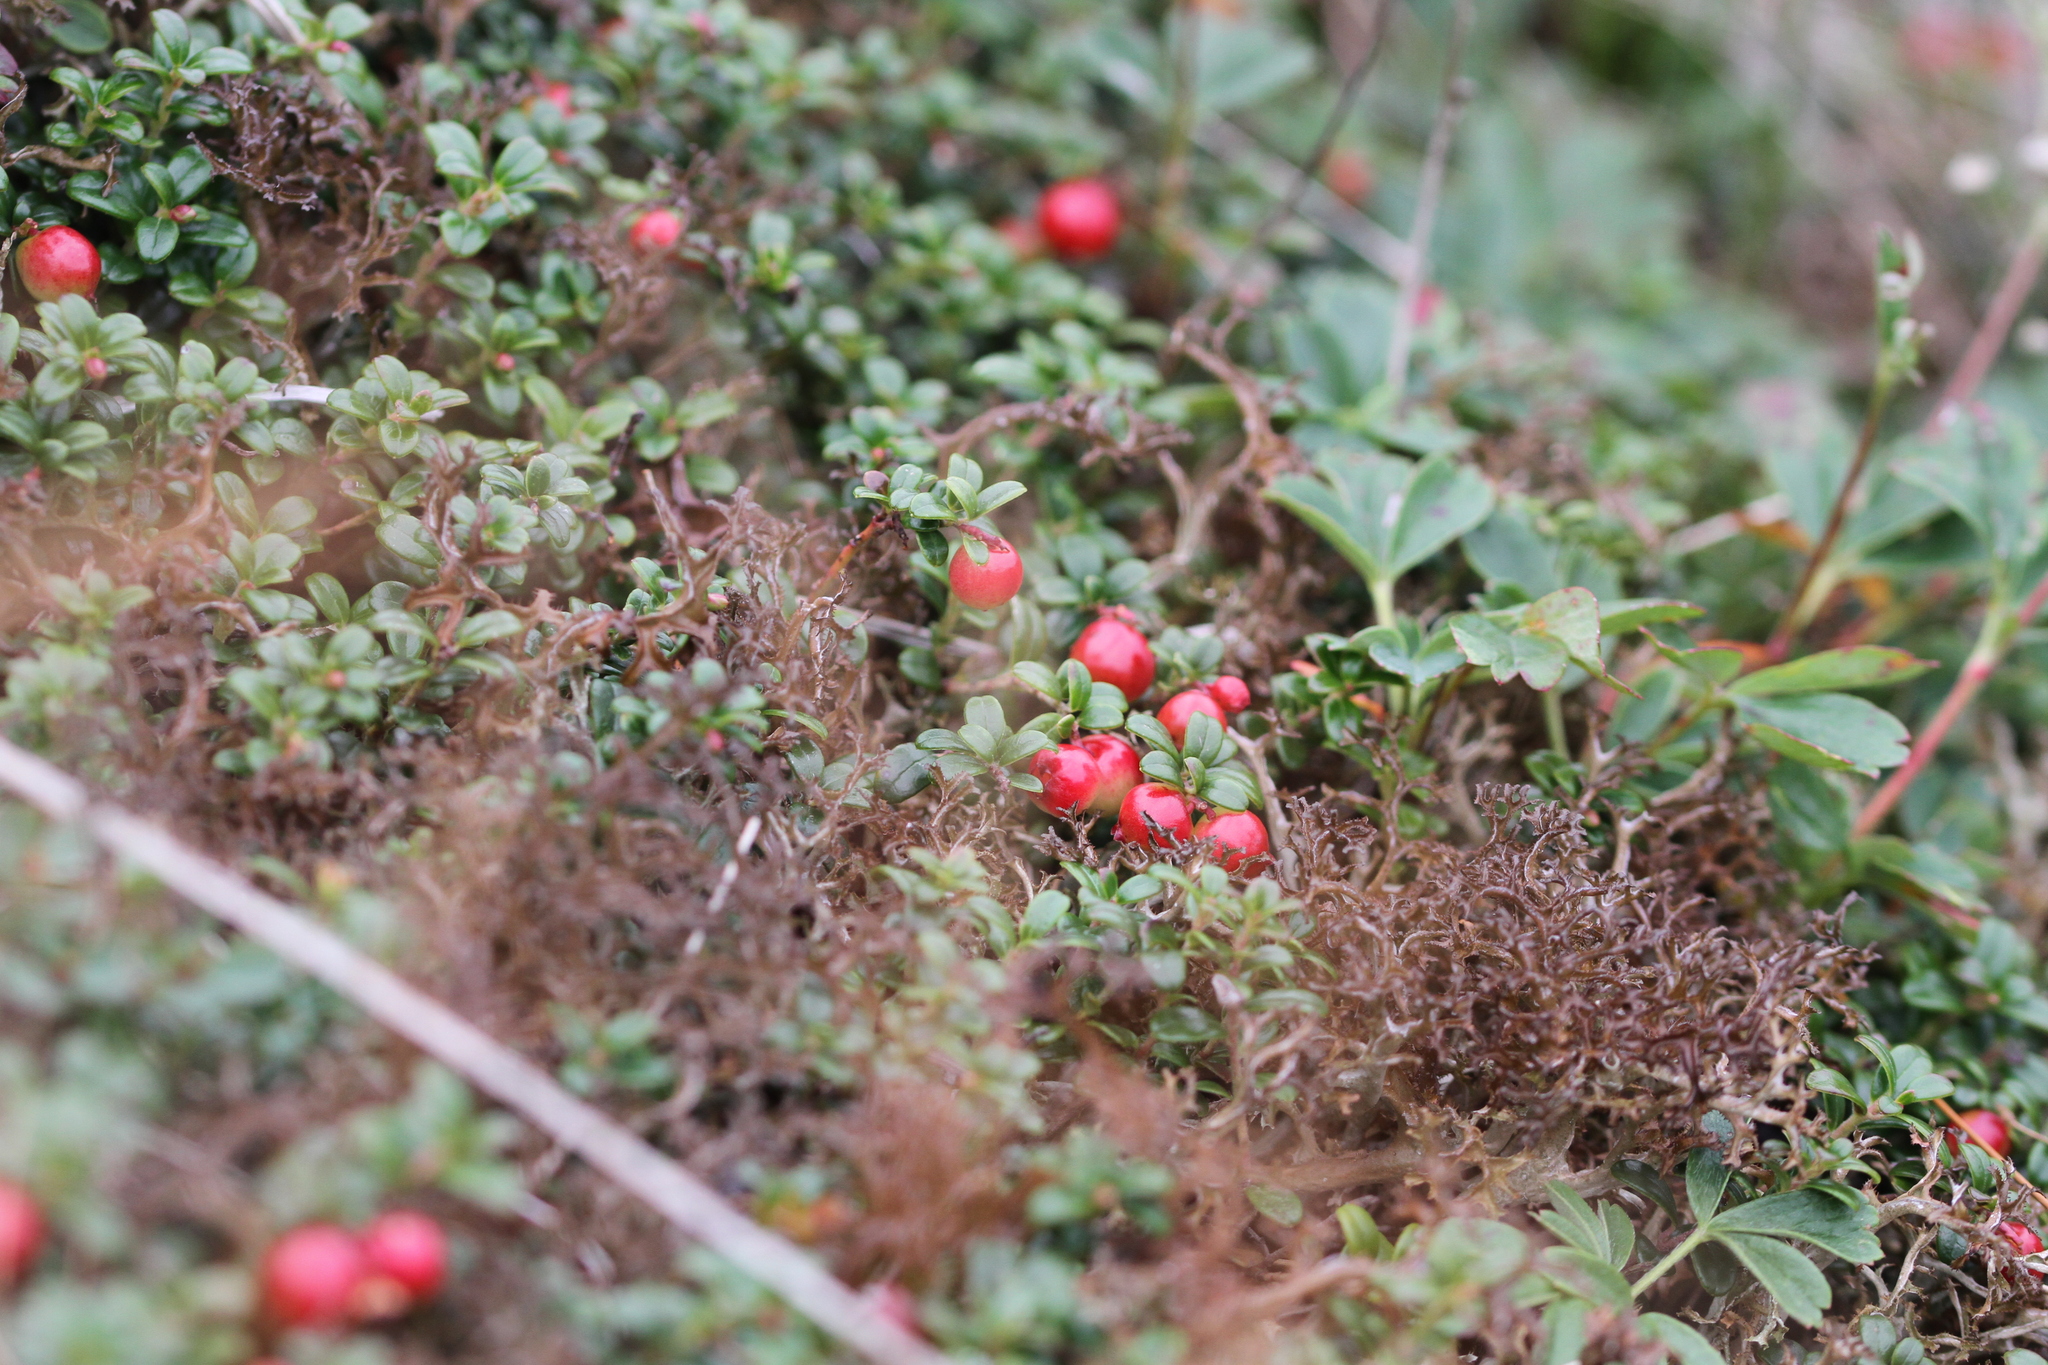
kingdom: Plantae
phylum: Tracheophyta
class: Magnoliopsida
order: Ericales
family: Ericaceae
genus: Vaccinium
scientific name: Vaccinium vitis-idaea
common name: Cowberry
